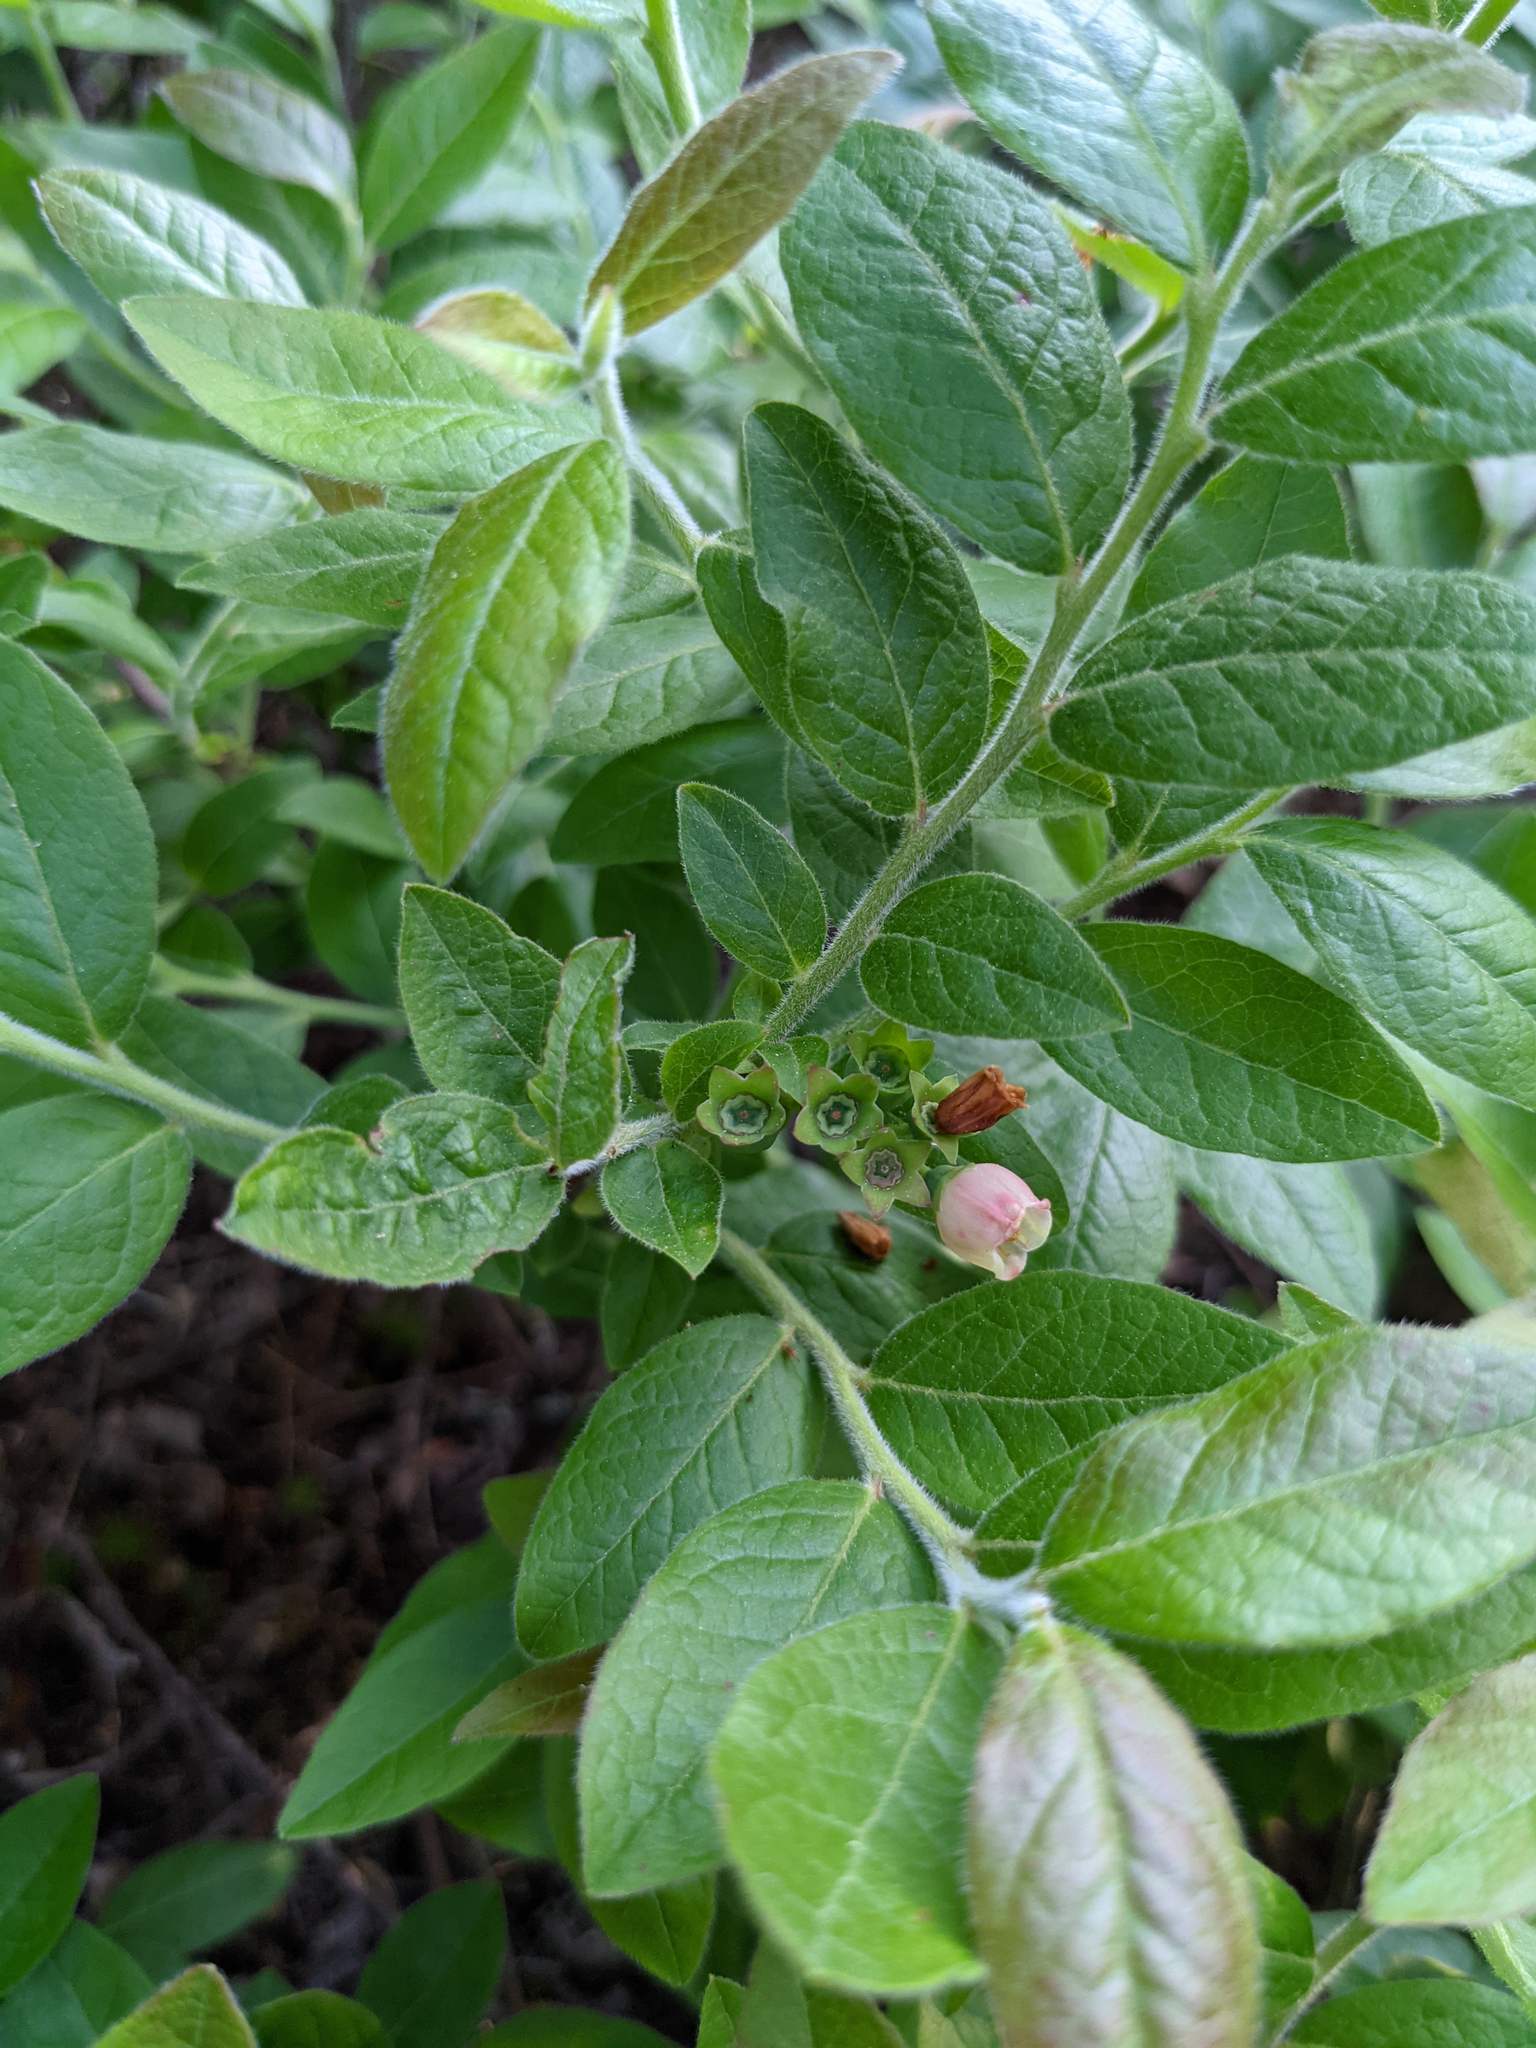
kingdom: Plantae
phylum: Tracheophyta
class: Magnoliopsida
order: Ericales
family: Ericaceae
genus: Vaccinium
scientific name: Vaccinium myrtilloides
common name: Canada blueberry
